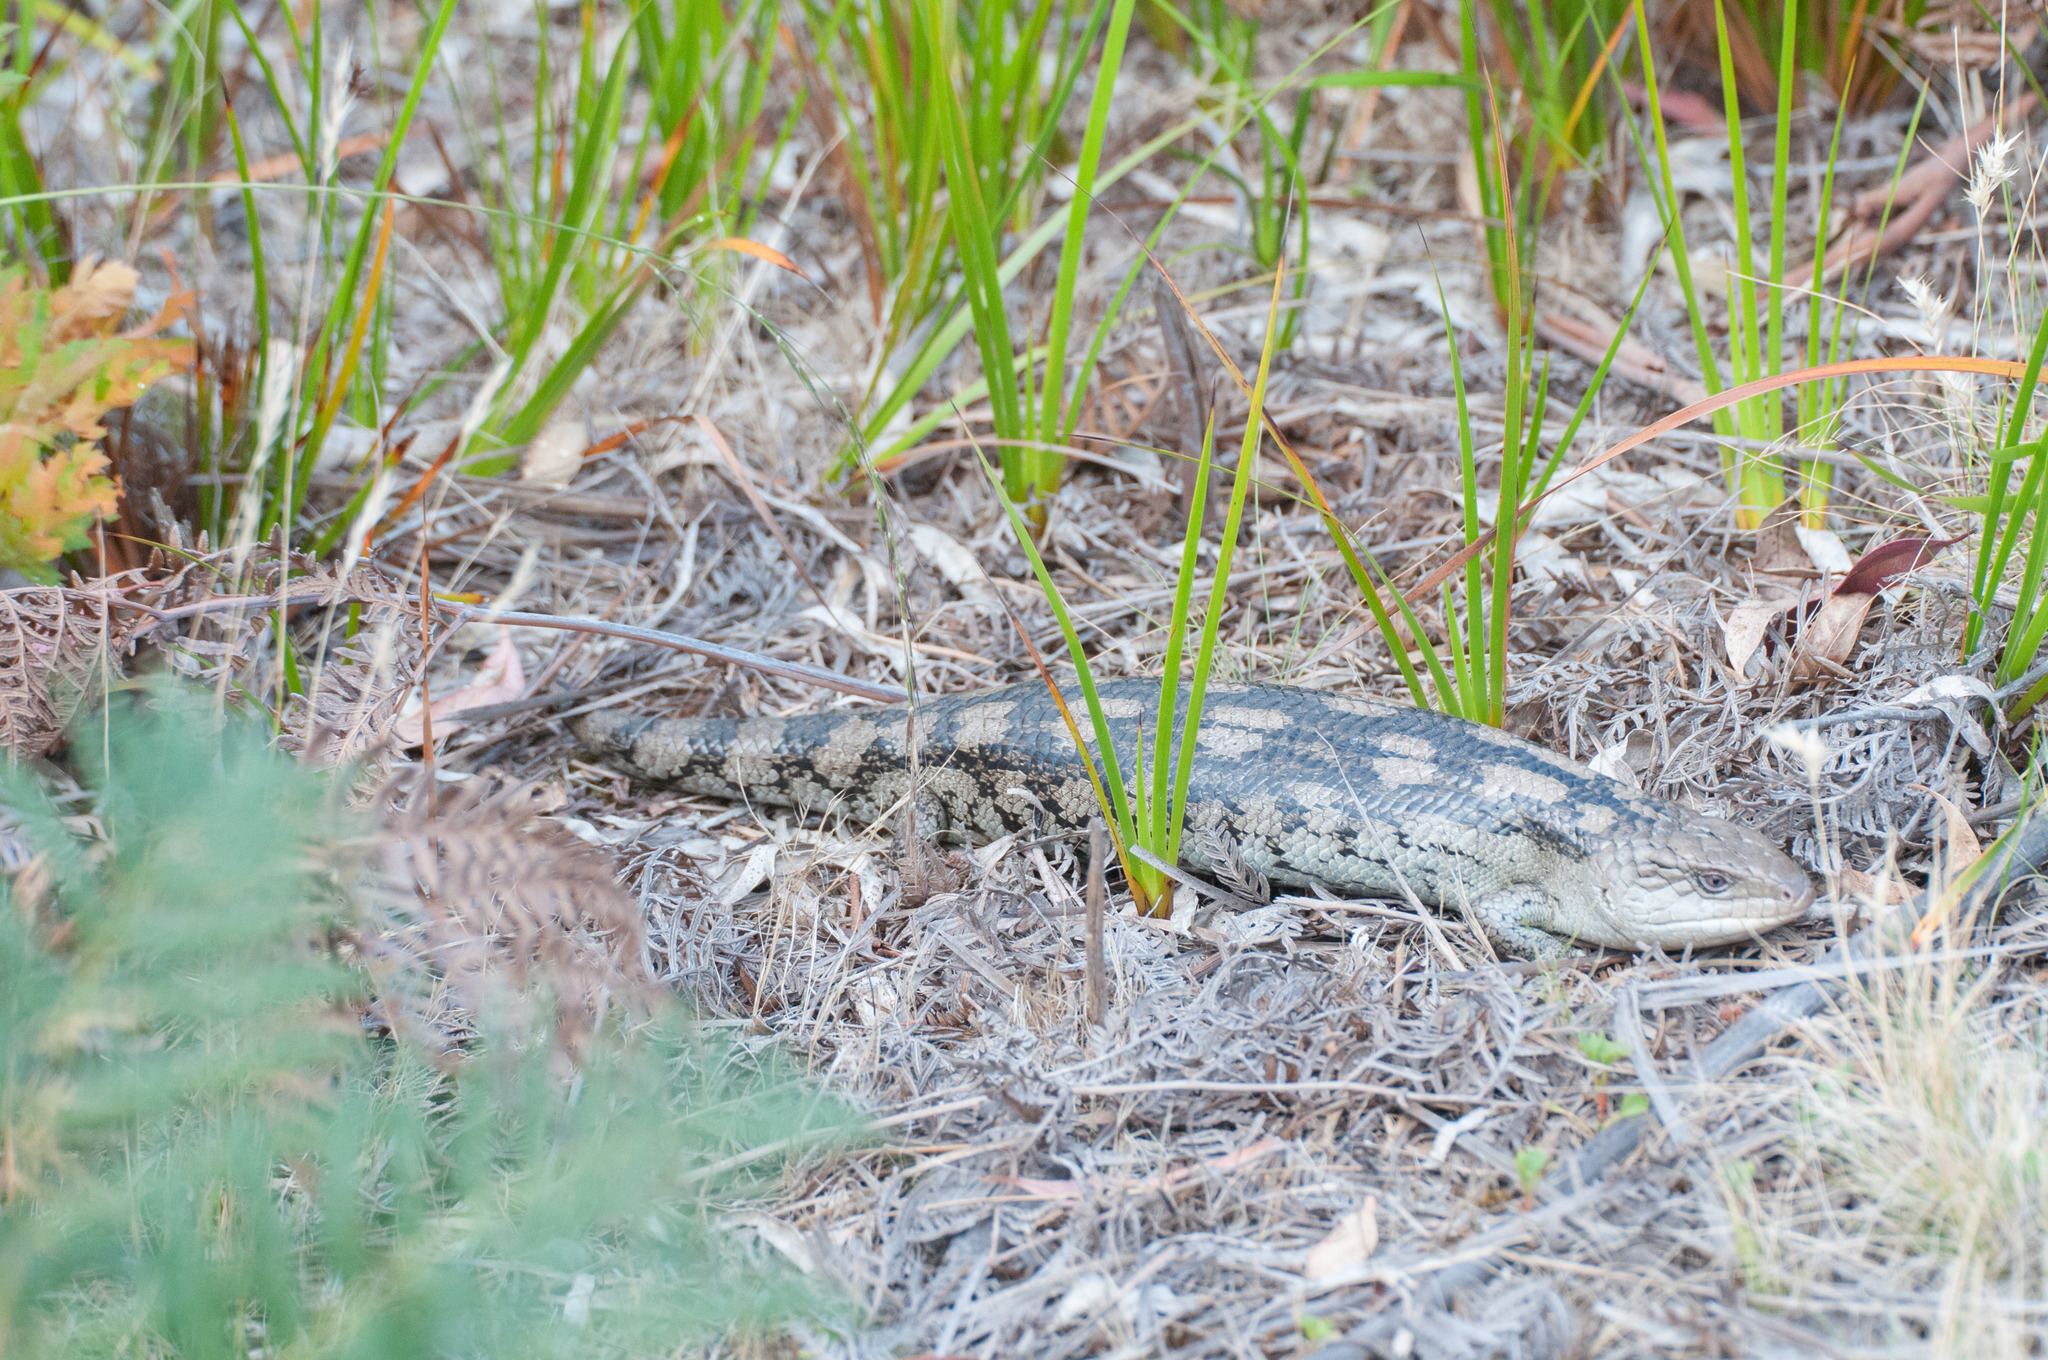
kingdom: Animalia
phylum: Chordata
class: Squamata
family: Scincidae
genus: Tiliqua
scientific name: Tiliqua nigrolutea
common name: Blotched blue-tongued lizard
